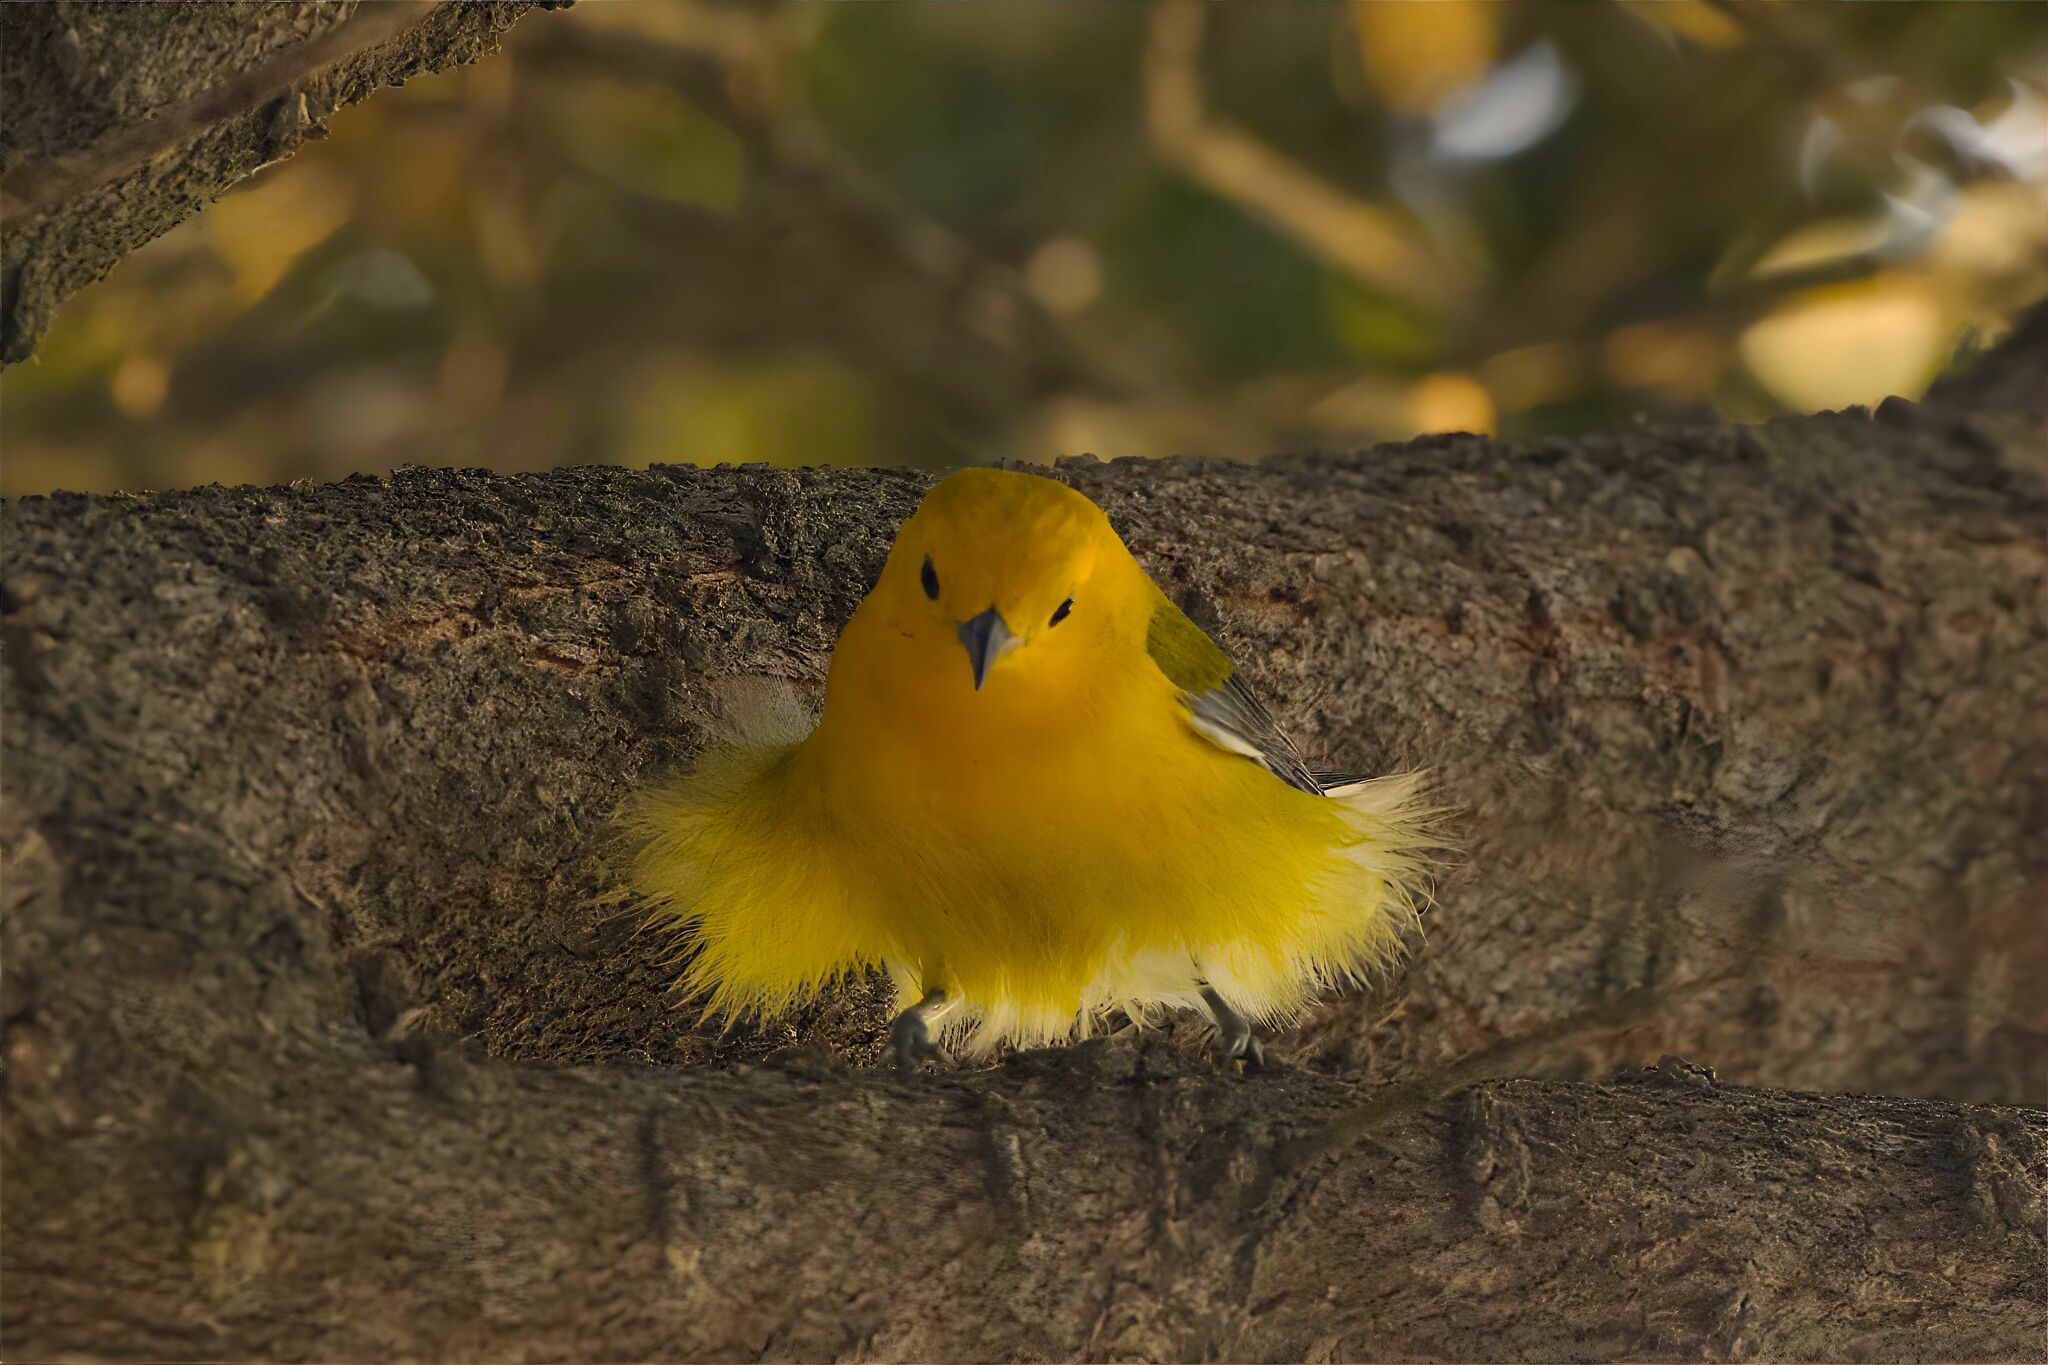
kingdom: Animalia
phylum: Chordata
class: Aves
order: Passeriformes
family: Parulidae
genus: Protonotaria
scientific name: Protonotaria citrea
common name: Prothonotary warbler
